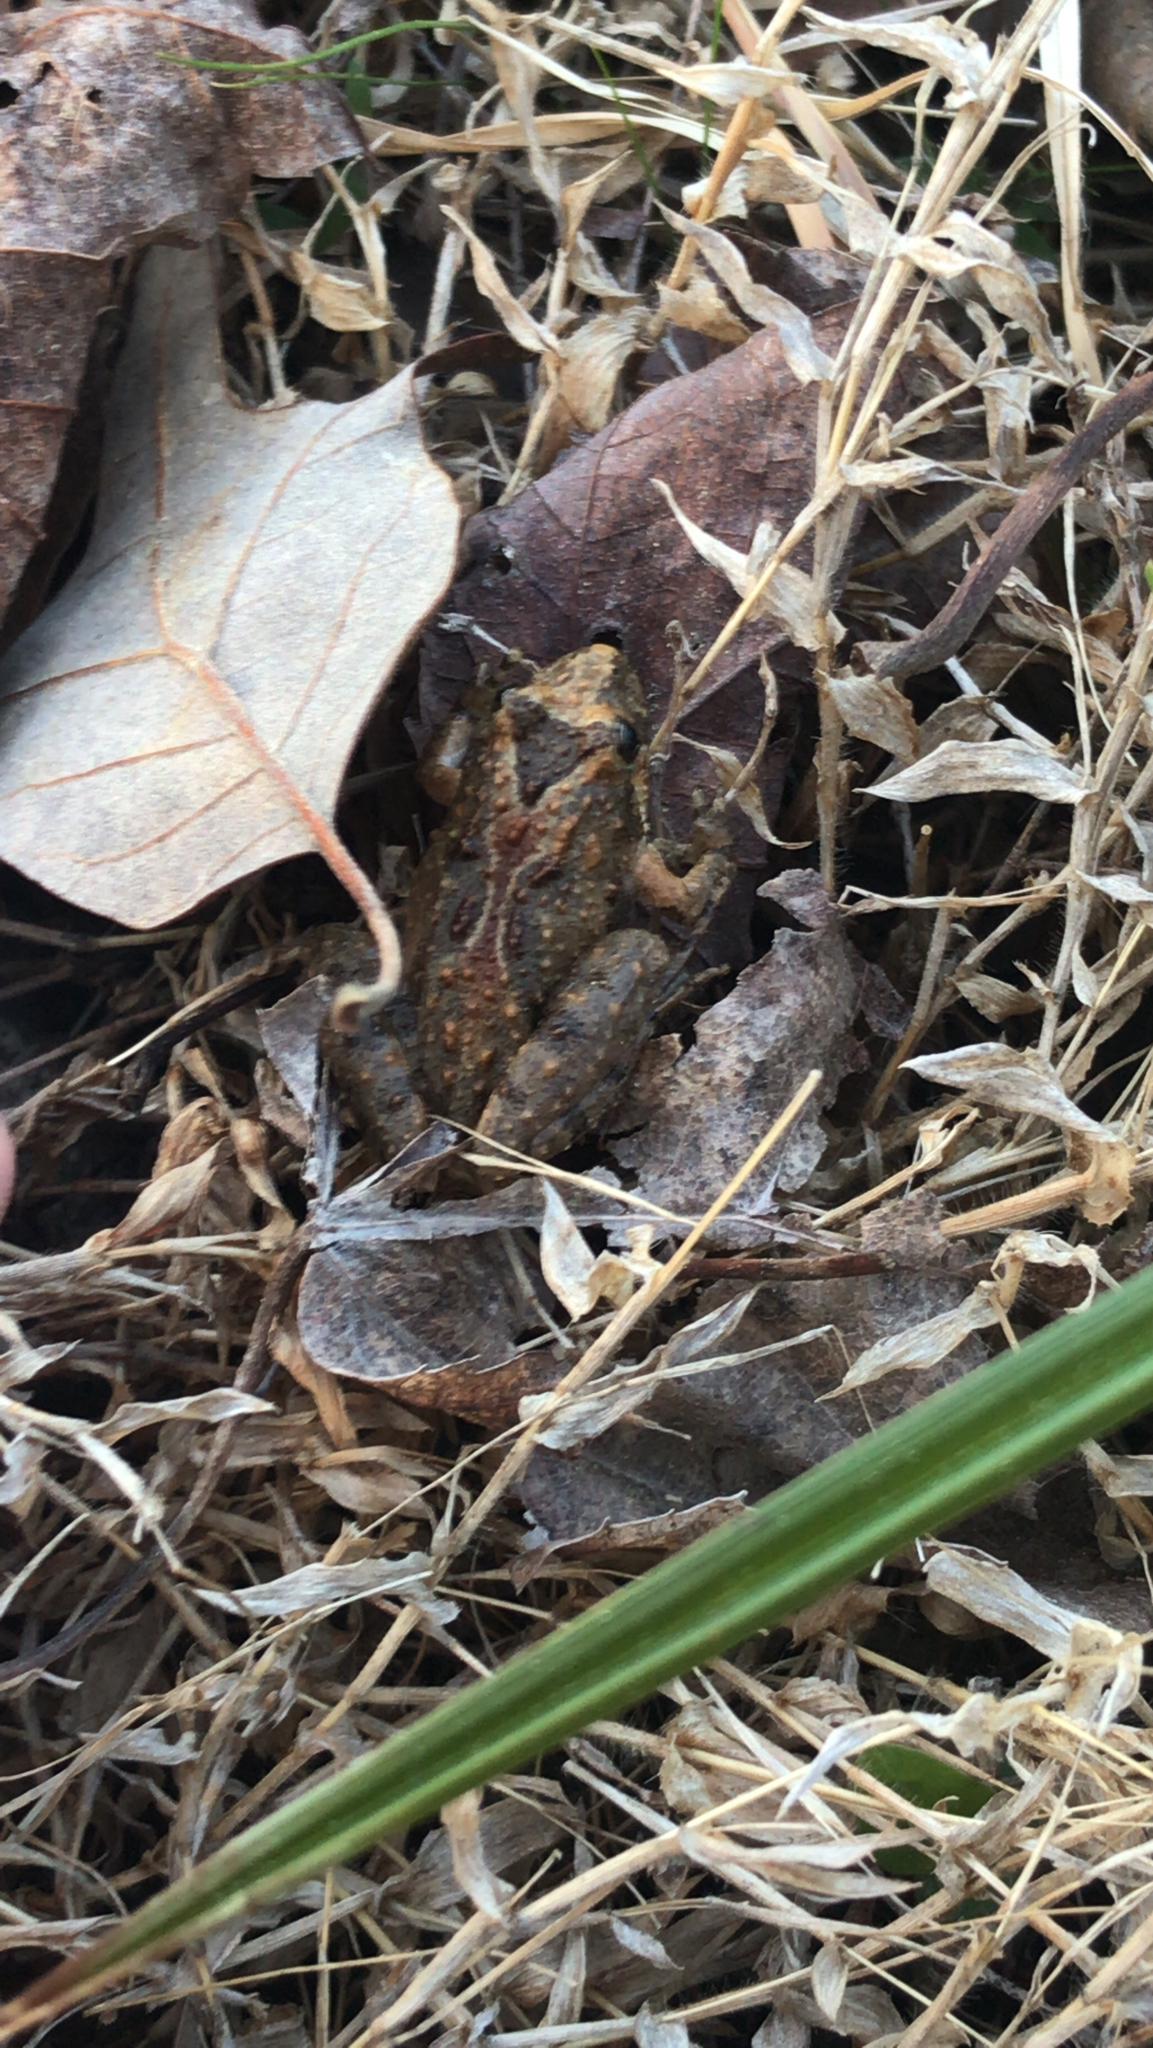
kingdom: Animalia
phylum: Chordata
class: Amphibia
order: Anura
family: Hylidae
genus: Acris
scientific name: Acris crepitans
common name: Northern cricket frog
